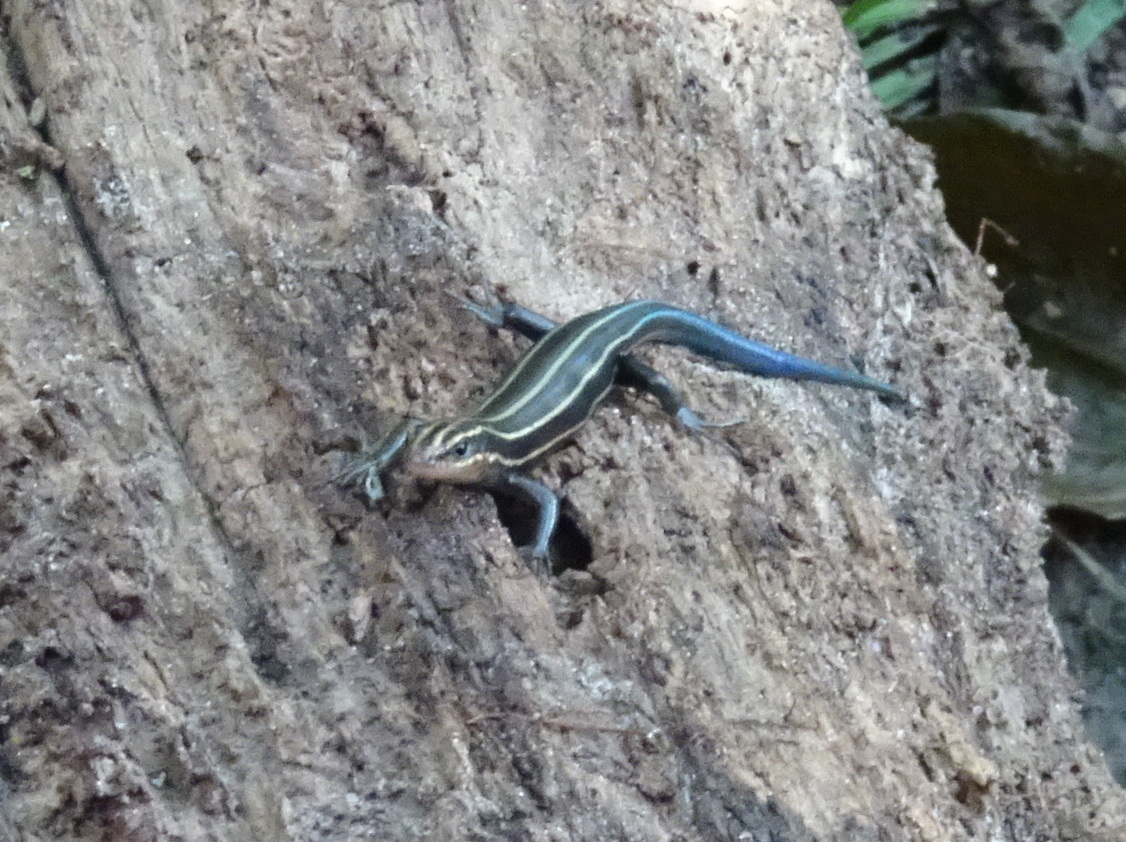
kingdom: Animalia
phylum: Chordata
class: Squamata
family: Scincidae
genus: Plestiodon
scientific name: Plestiodon fasciatus
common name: Five-lined skink
